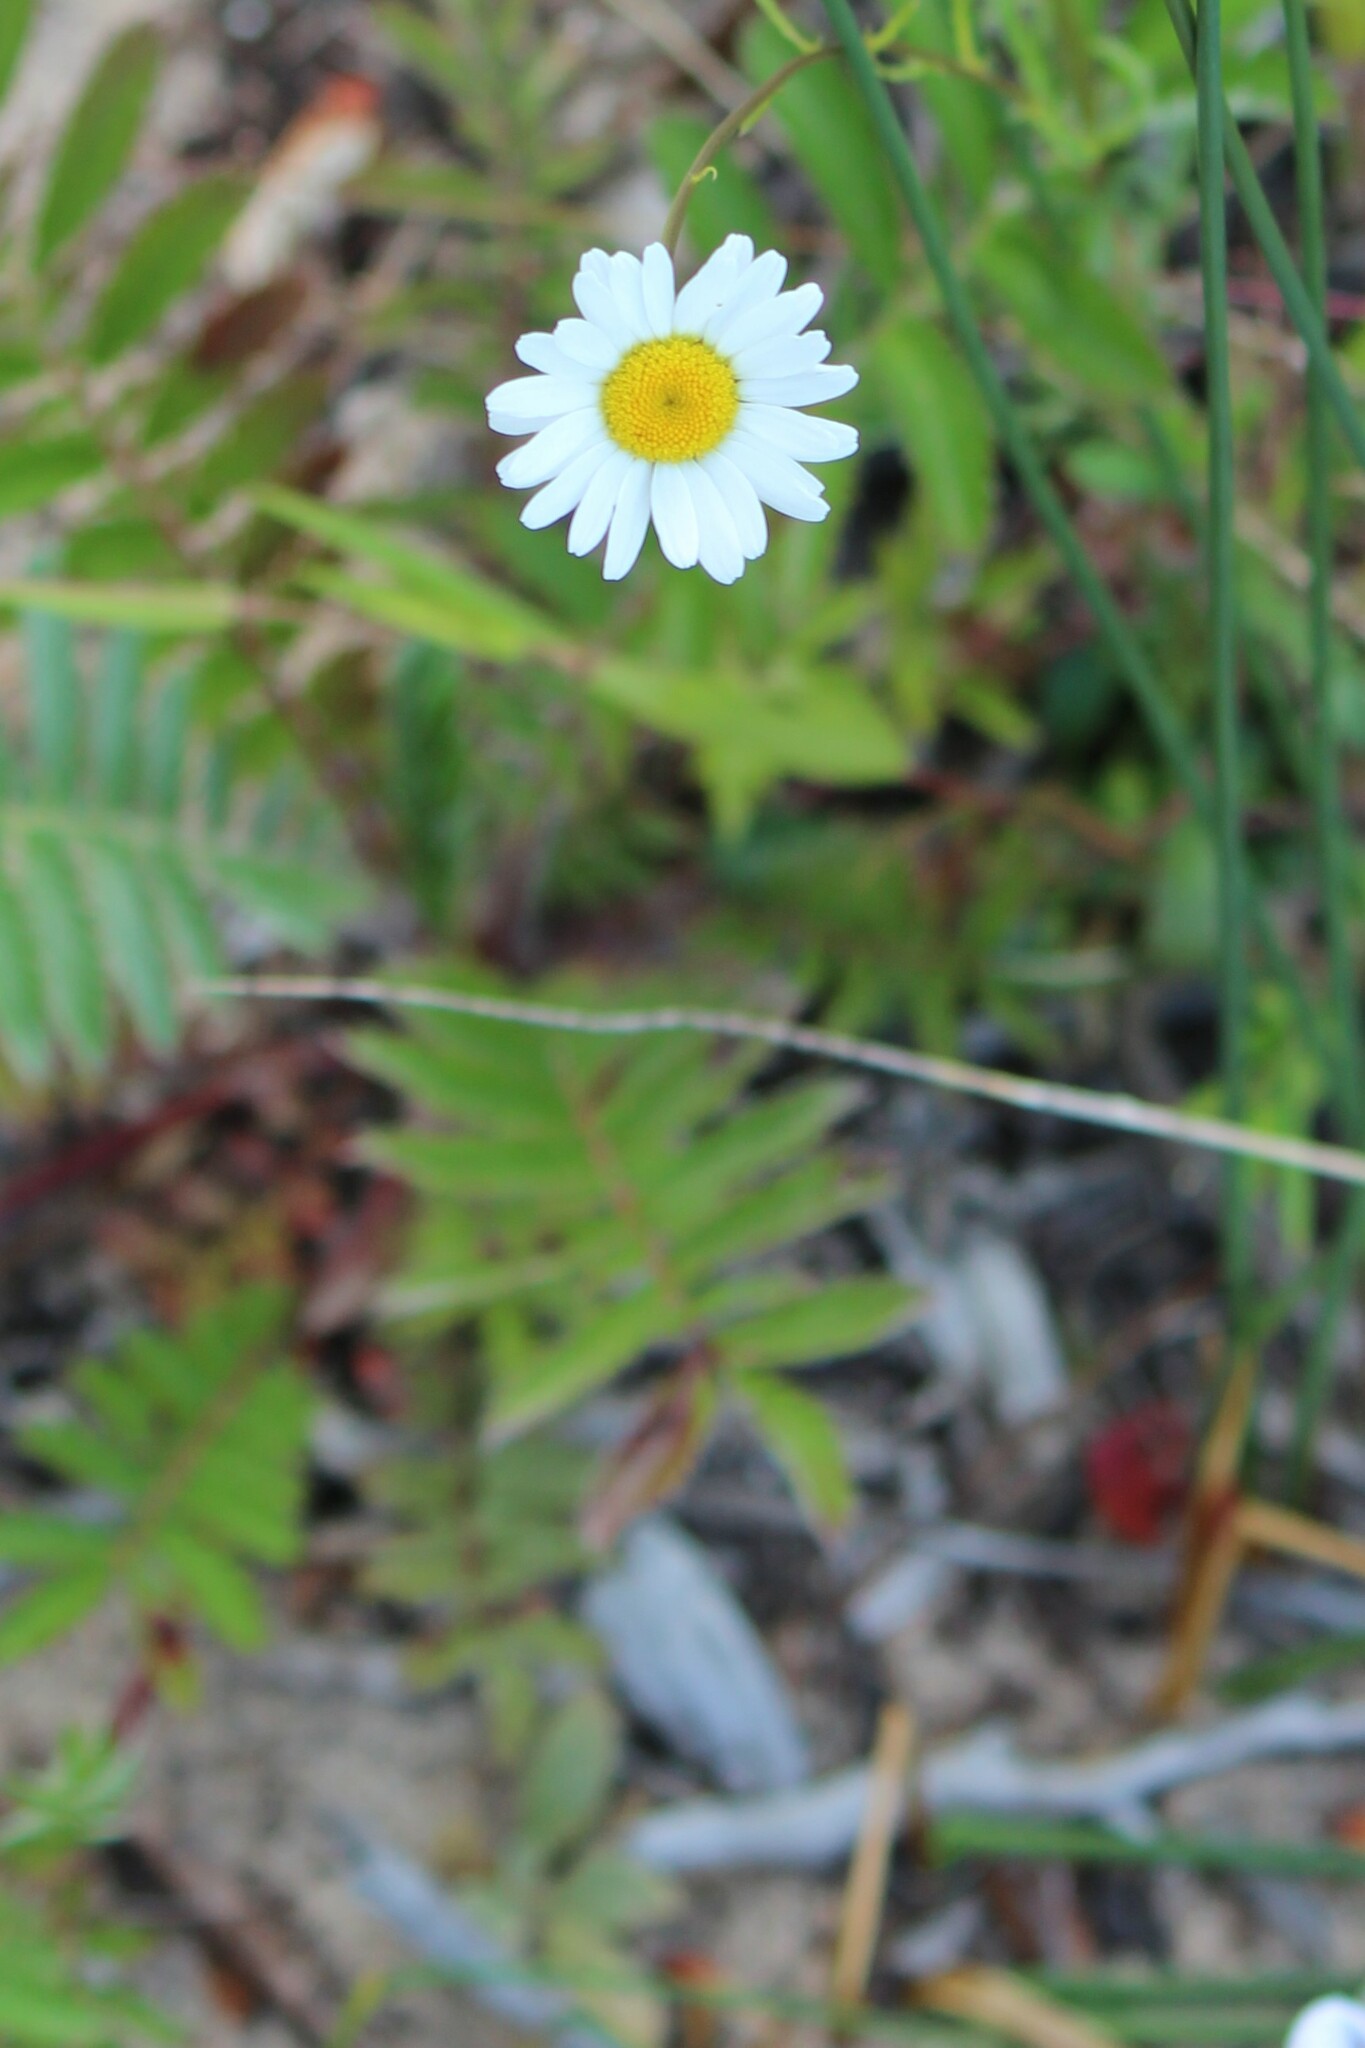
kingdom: Plantae
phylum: Tracheophyta
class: Magnoliopsida
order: Asterales
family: Asteraceae
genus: Leucanthemum
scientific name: Leucanthemum vulgare
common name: Oxeye daisy
